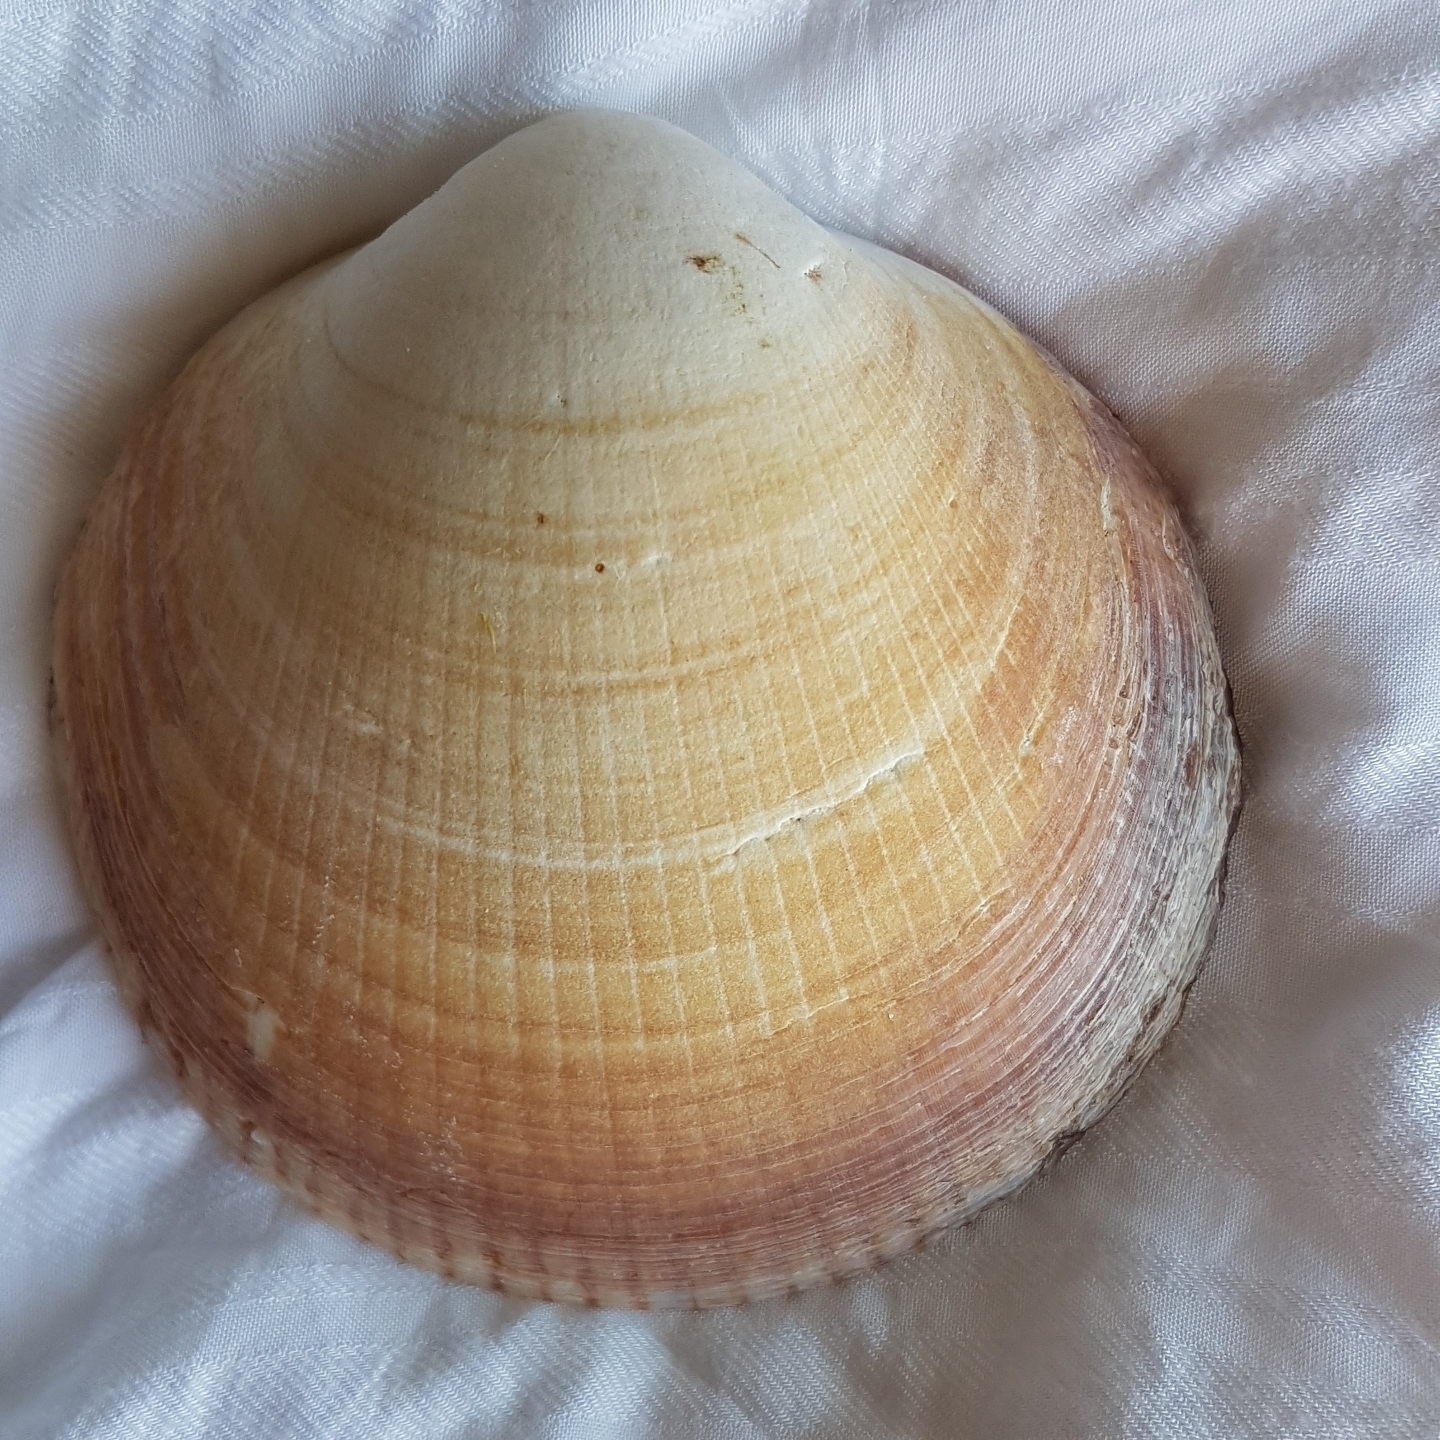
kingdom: Animalia
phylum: Mollusca
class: Bivalvia
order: Arcida
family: Glycymerididae
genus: Glycymeris
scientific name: Glycymeris glycymeris
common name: Dog-cockle
